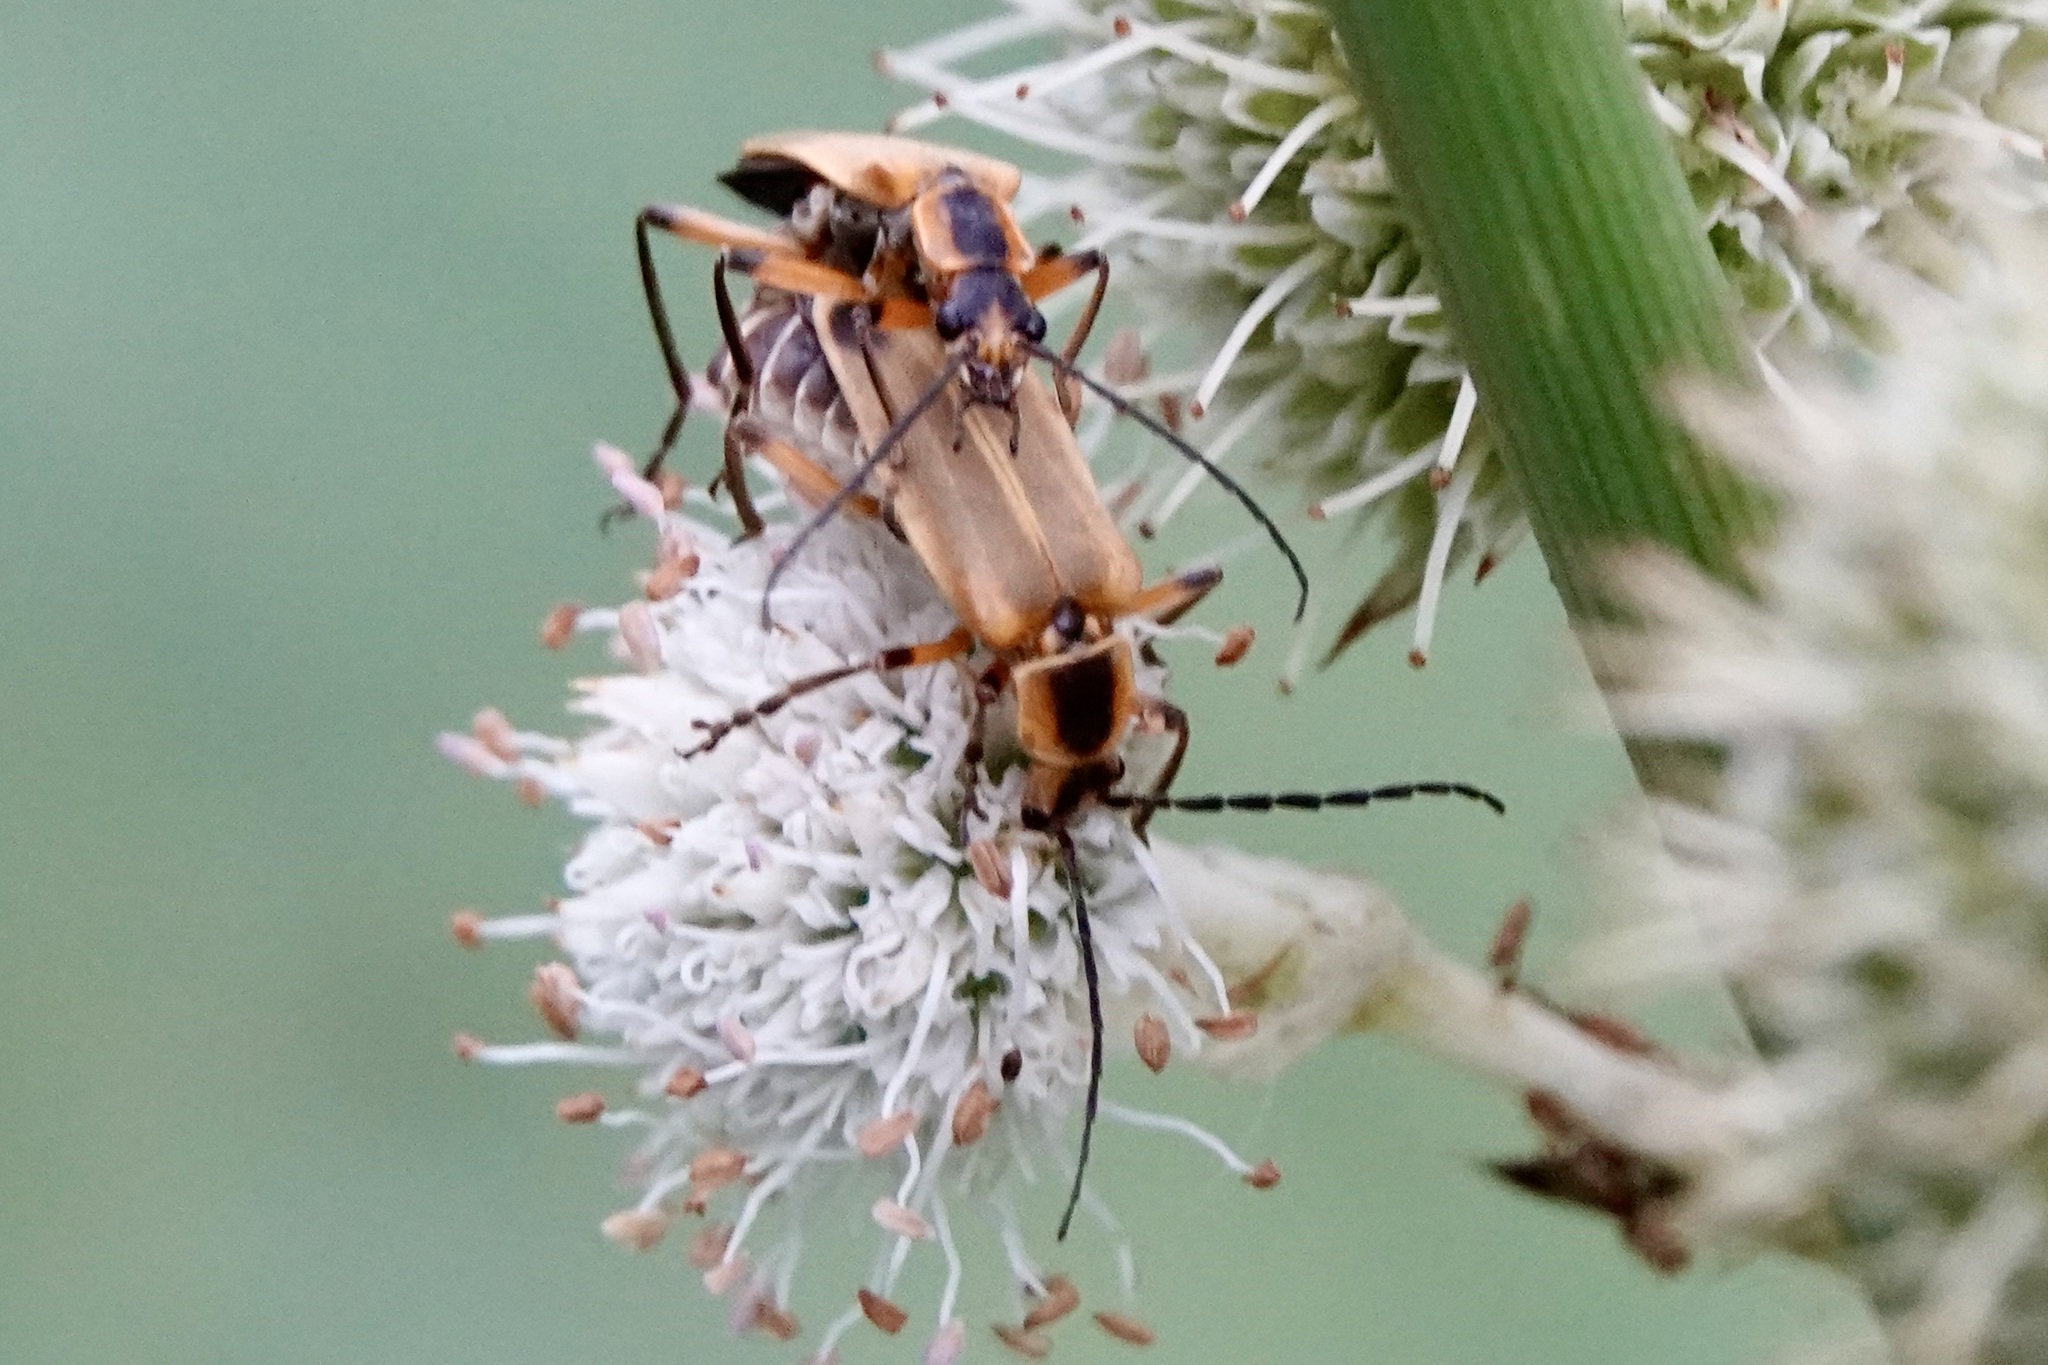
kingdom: Animalia
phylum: Arthropoda
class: Insecta
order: Coleoptera
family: Cantharidae
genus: Chauliognathus
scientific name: Chauliognathus marginatus
